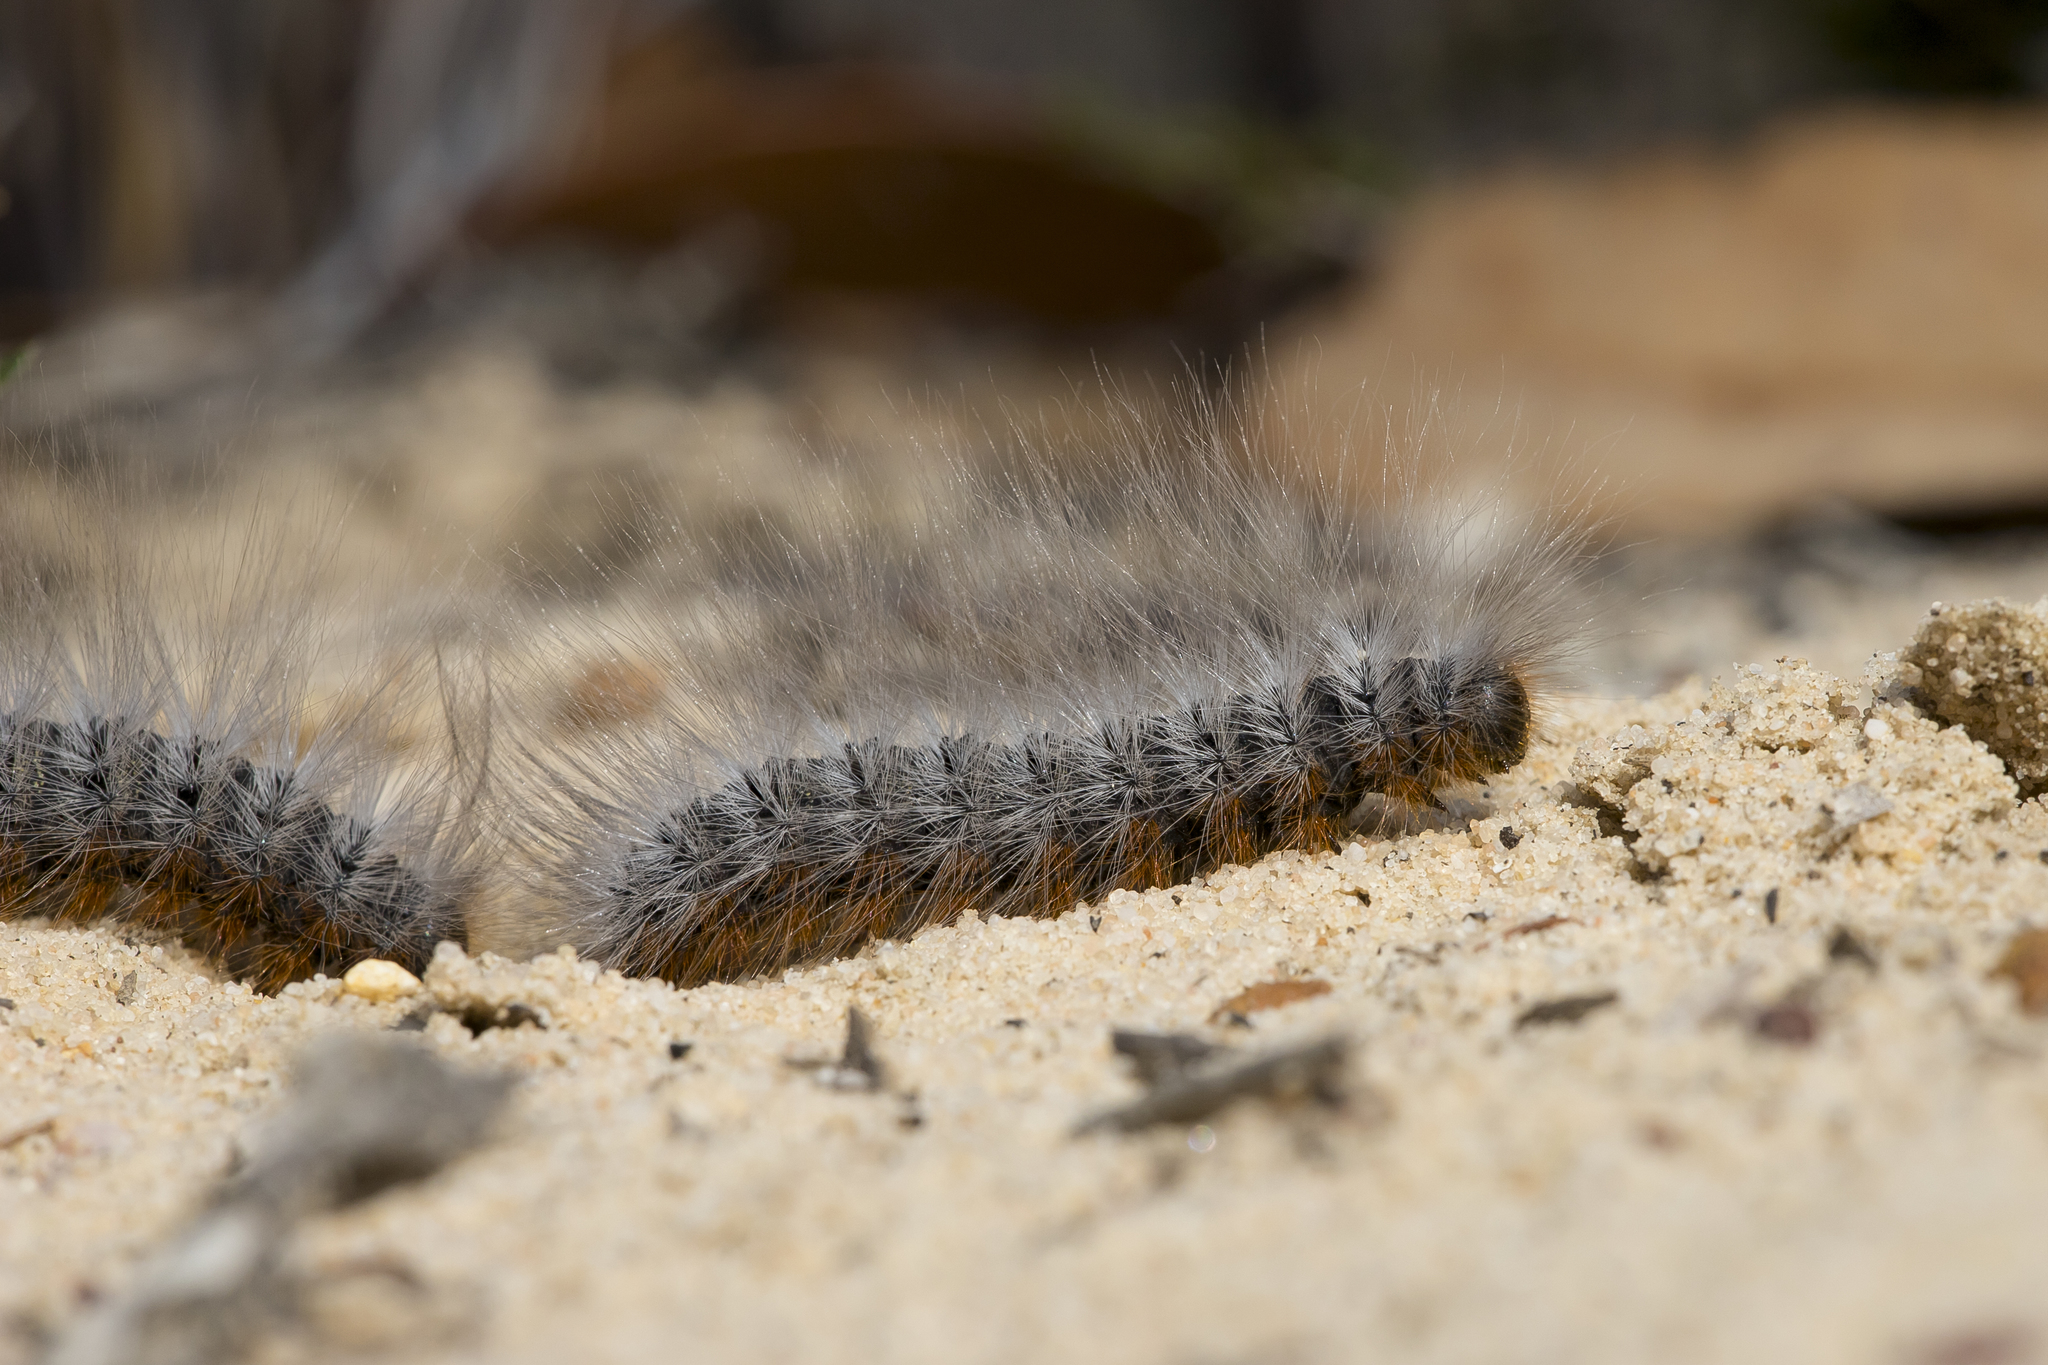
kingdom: Animalia
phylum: Arthropoda
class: Insecta
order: Lepidoptera
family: Notodontidae
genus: Ochrogaster
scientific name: Ochrogaster lunifer
